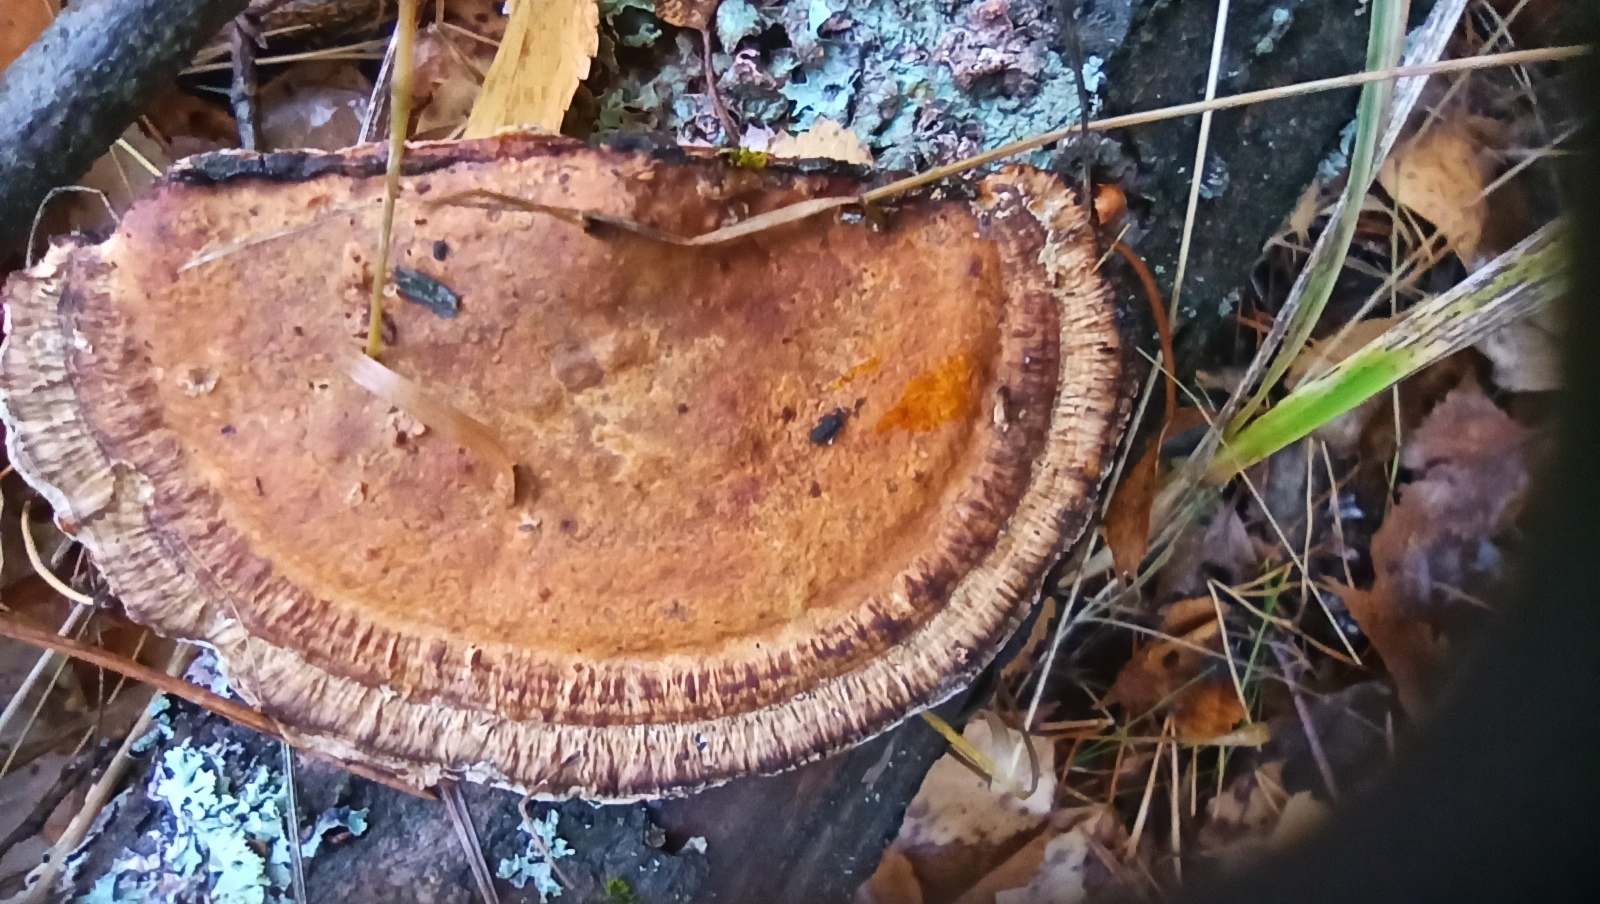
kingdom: Fungi
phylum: Basidiomycota
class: Agaricomycetes
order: Polyporales
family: Polyporaceae
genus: Daedaleopsis
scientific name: Daedaleopsis confragosa
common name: Blushing bracket
